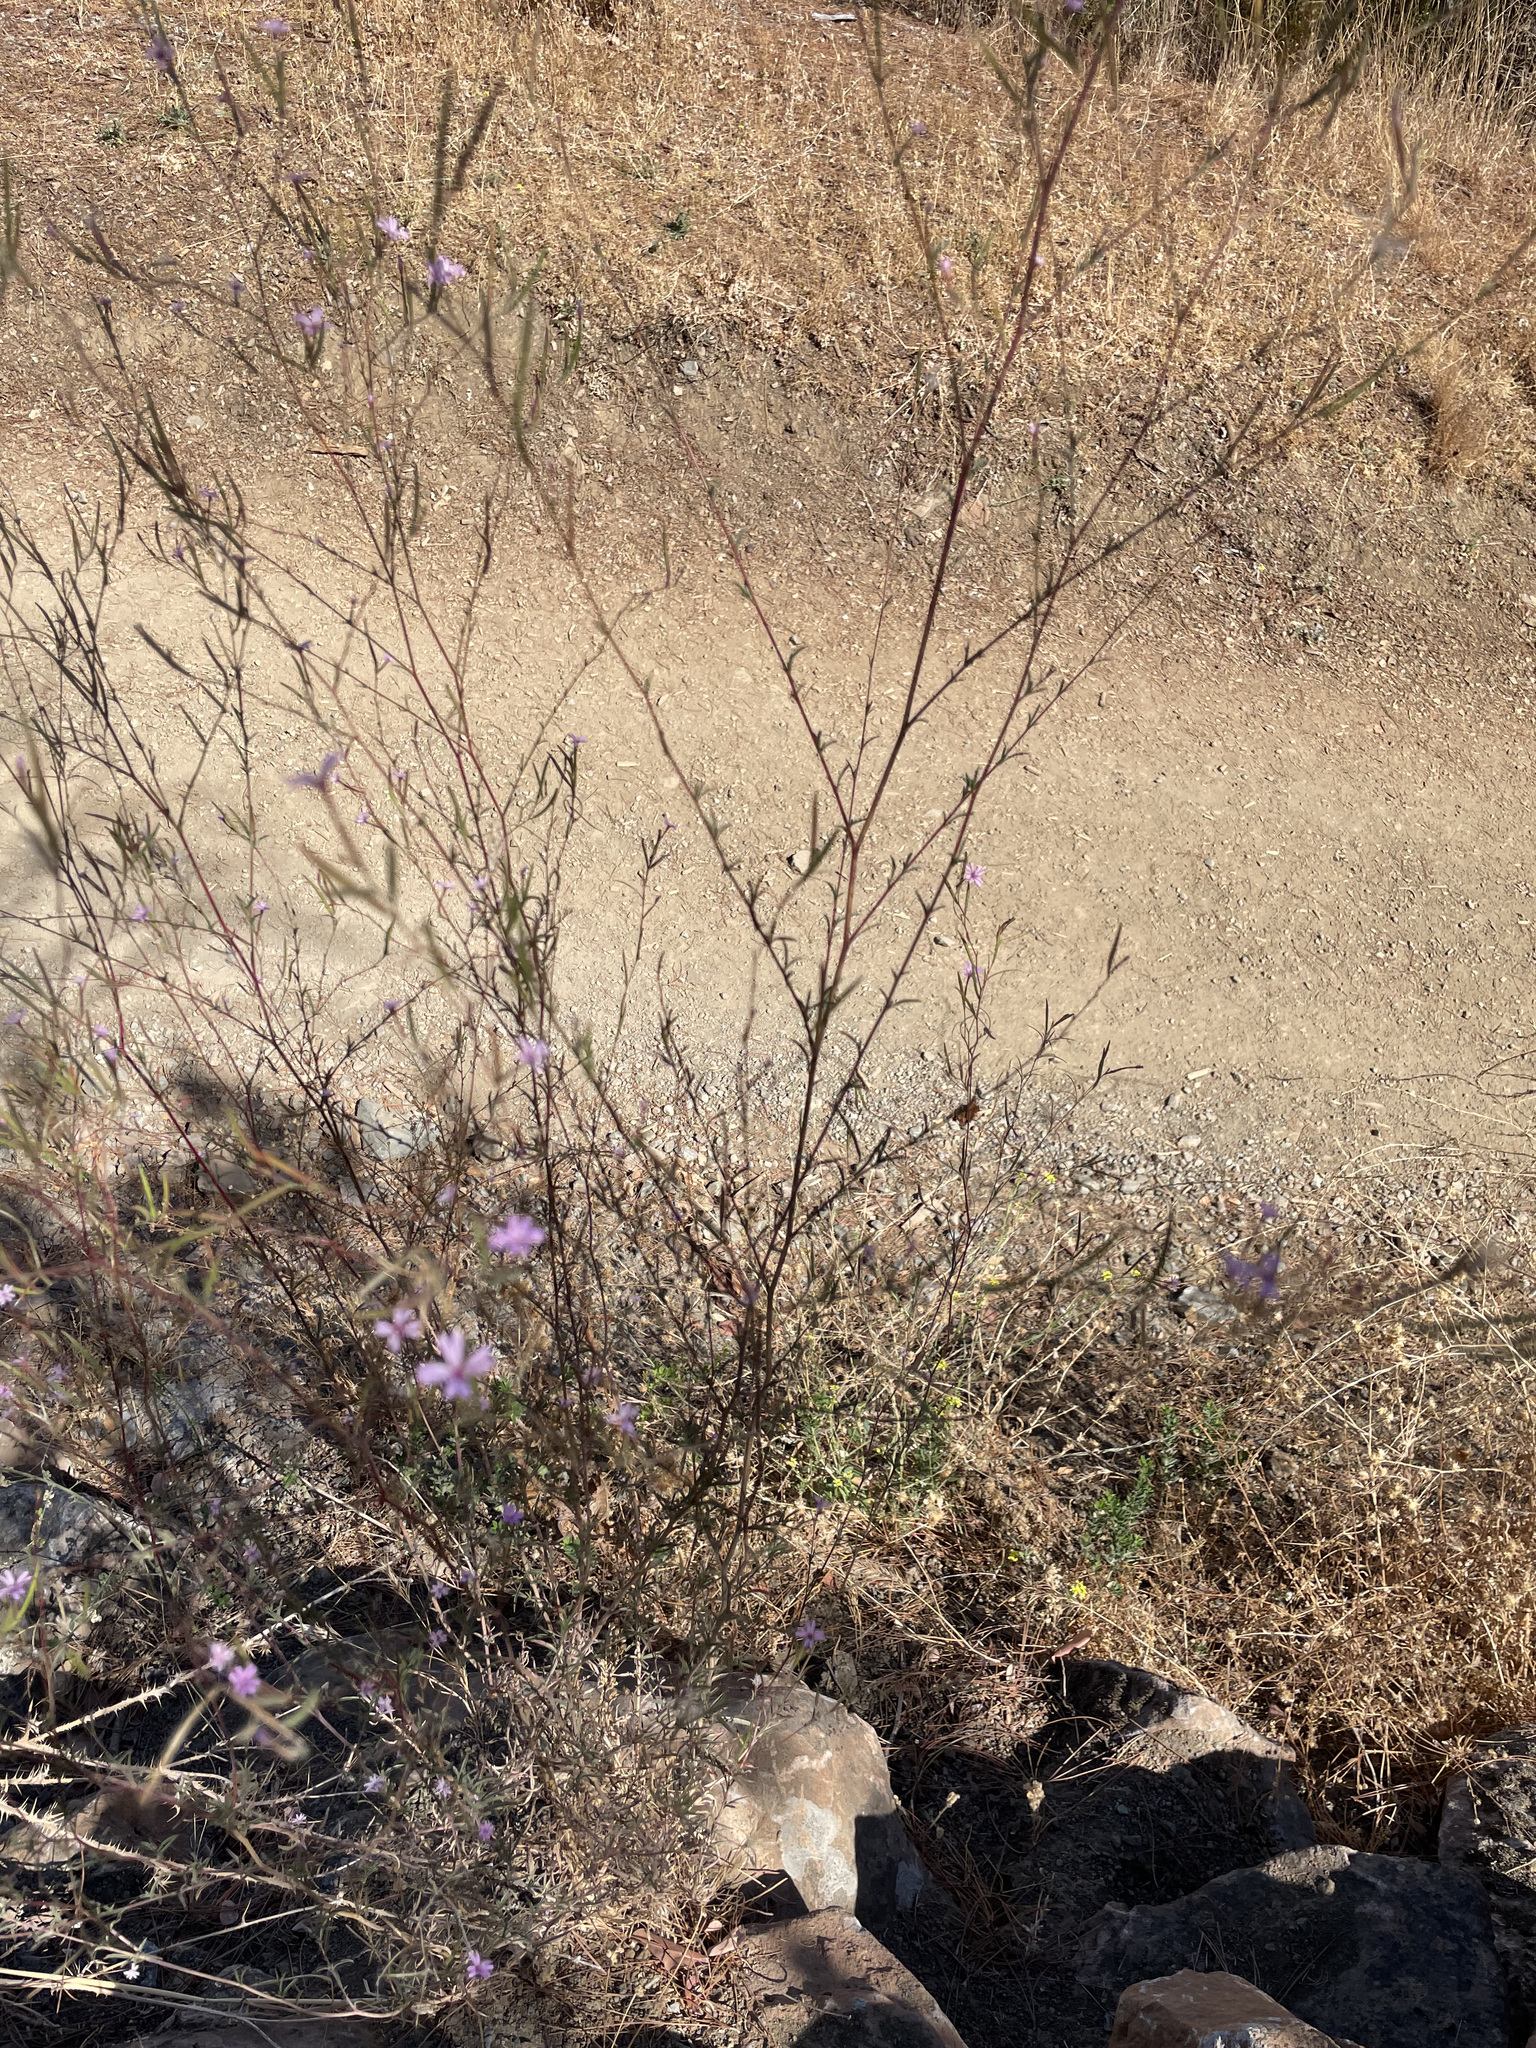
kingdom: Plantae
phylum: Tracheophyta
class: Magnoliopsida
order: Myrtales
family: Onagraceae
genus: Epilobium
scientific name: Epilobium brachycarpum
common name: Annual willowherb
